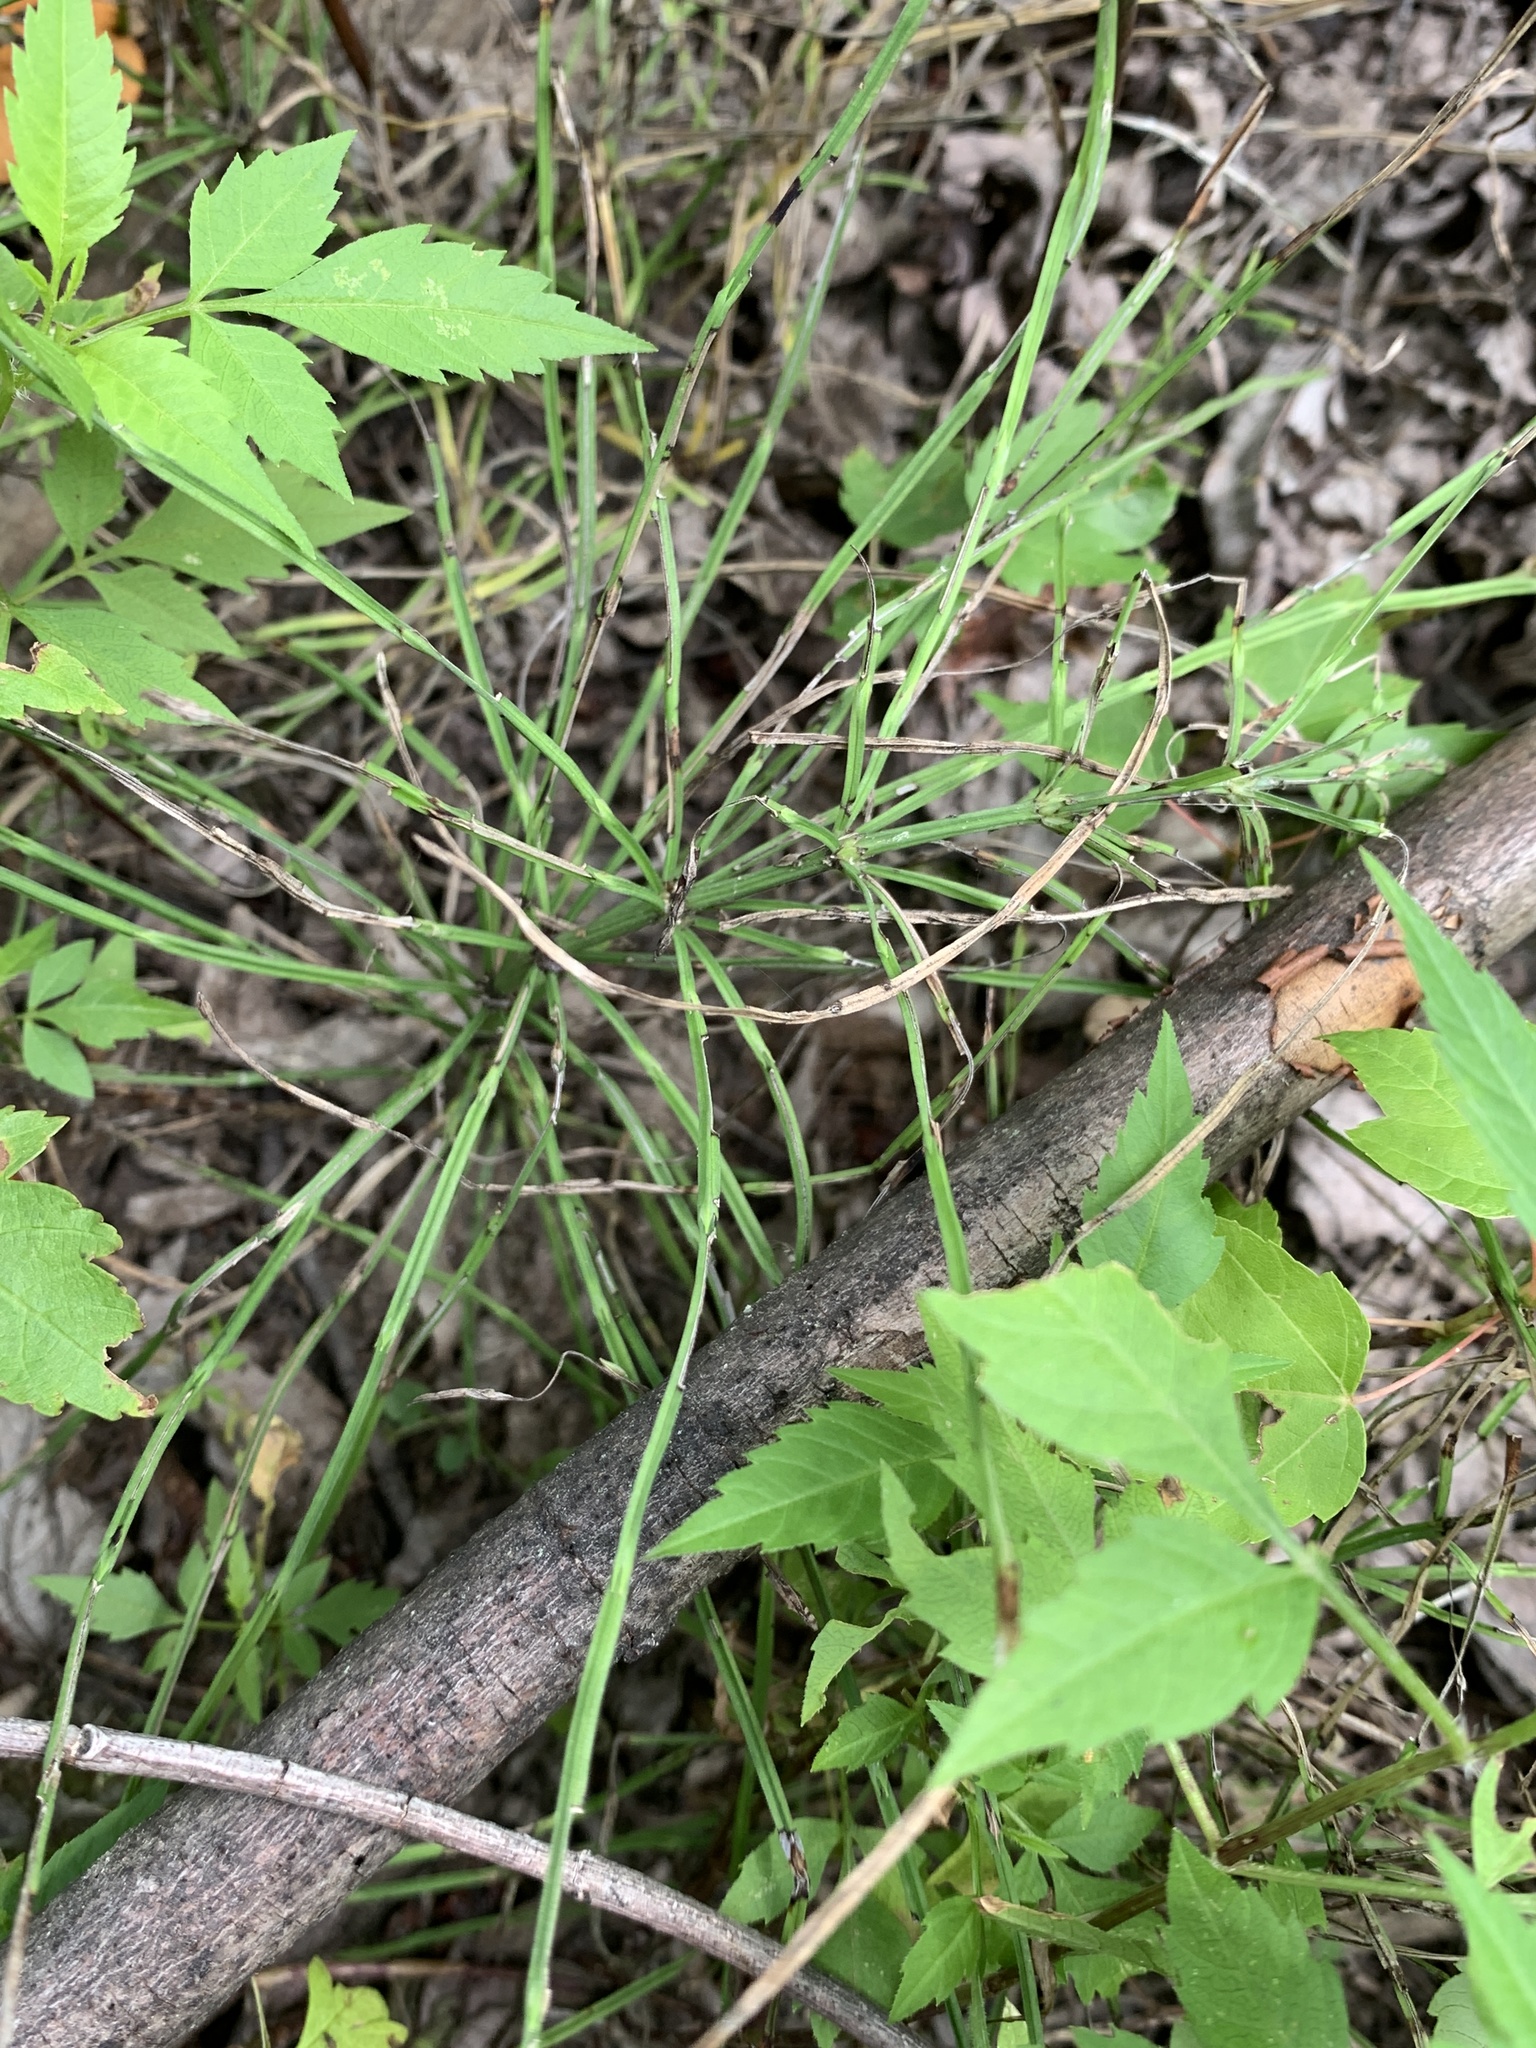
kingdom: Plantae
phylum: Tracheophyta
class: Polypodiopsida
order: Equisetales
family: Equisetaceae
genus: Equisetum
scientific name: Equisetum arvense
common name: Field horsetail
